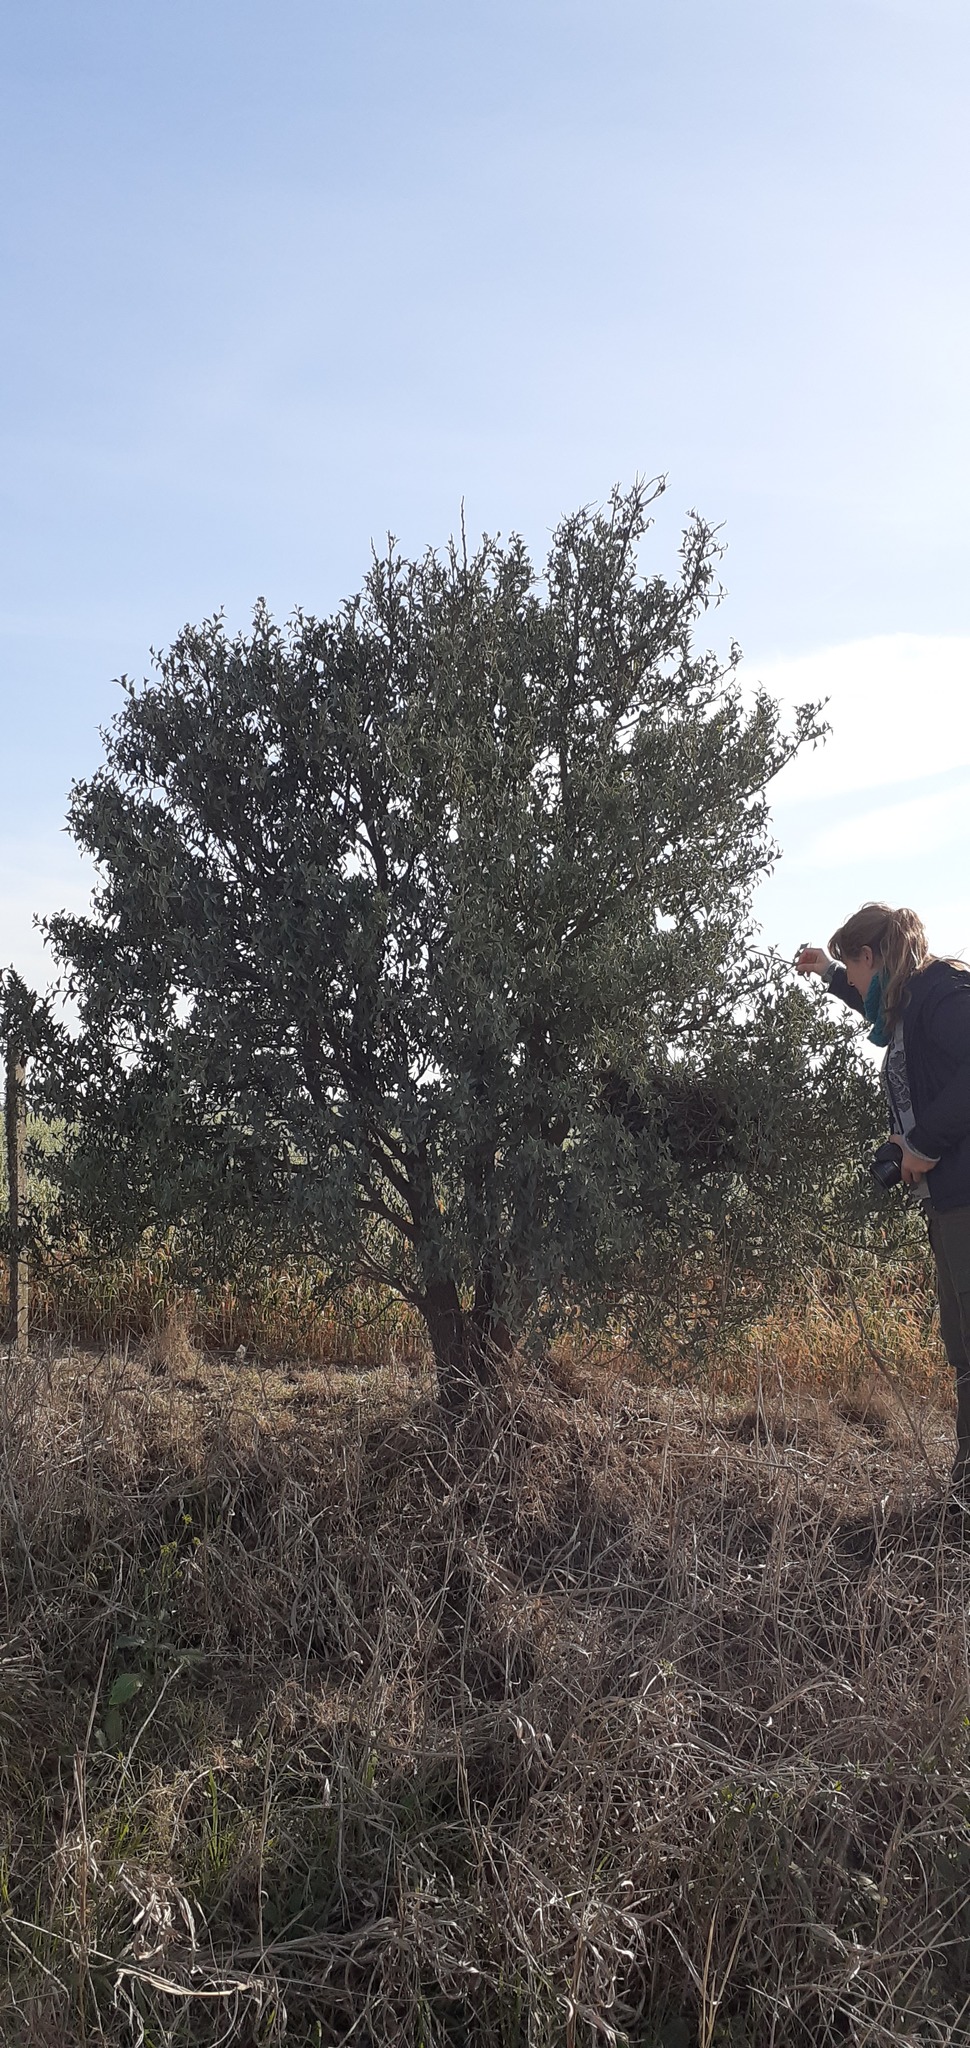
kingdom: Plantae
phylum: Tracheophyta
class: Magnoliopsida
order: Santalales
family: Cervantesiaceae
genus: Jodina
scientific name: Jodina rhombifolia
